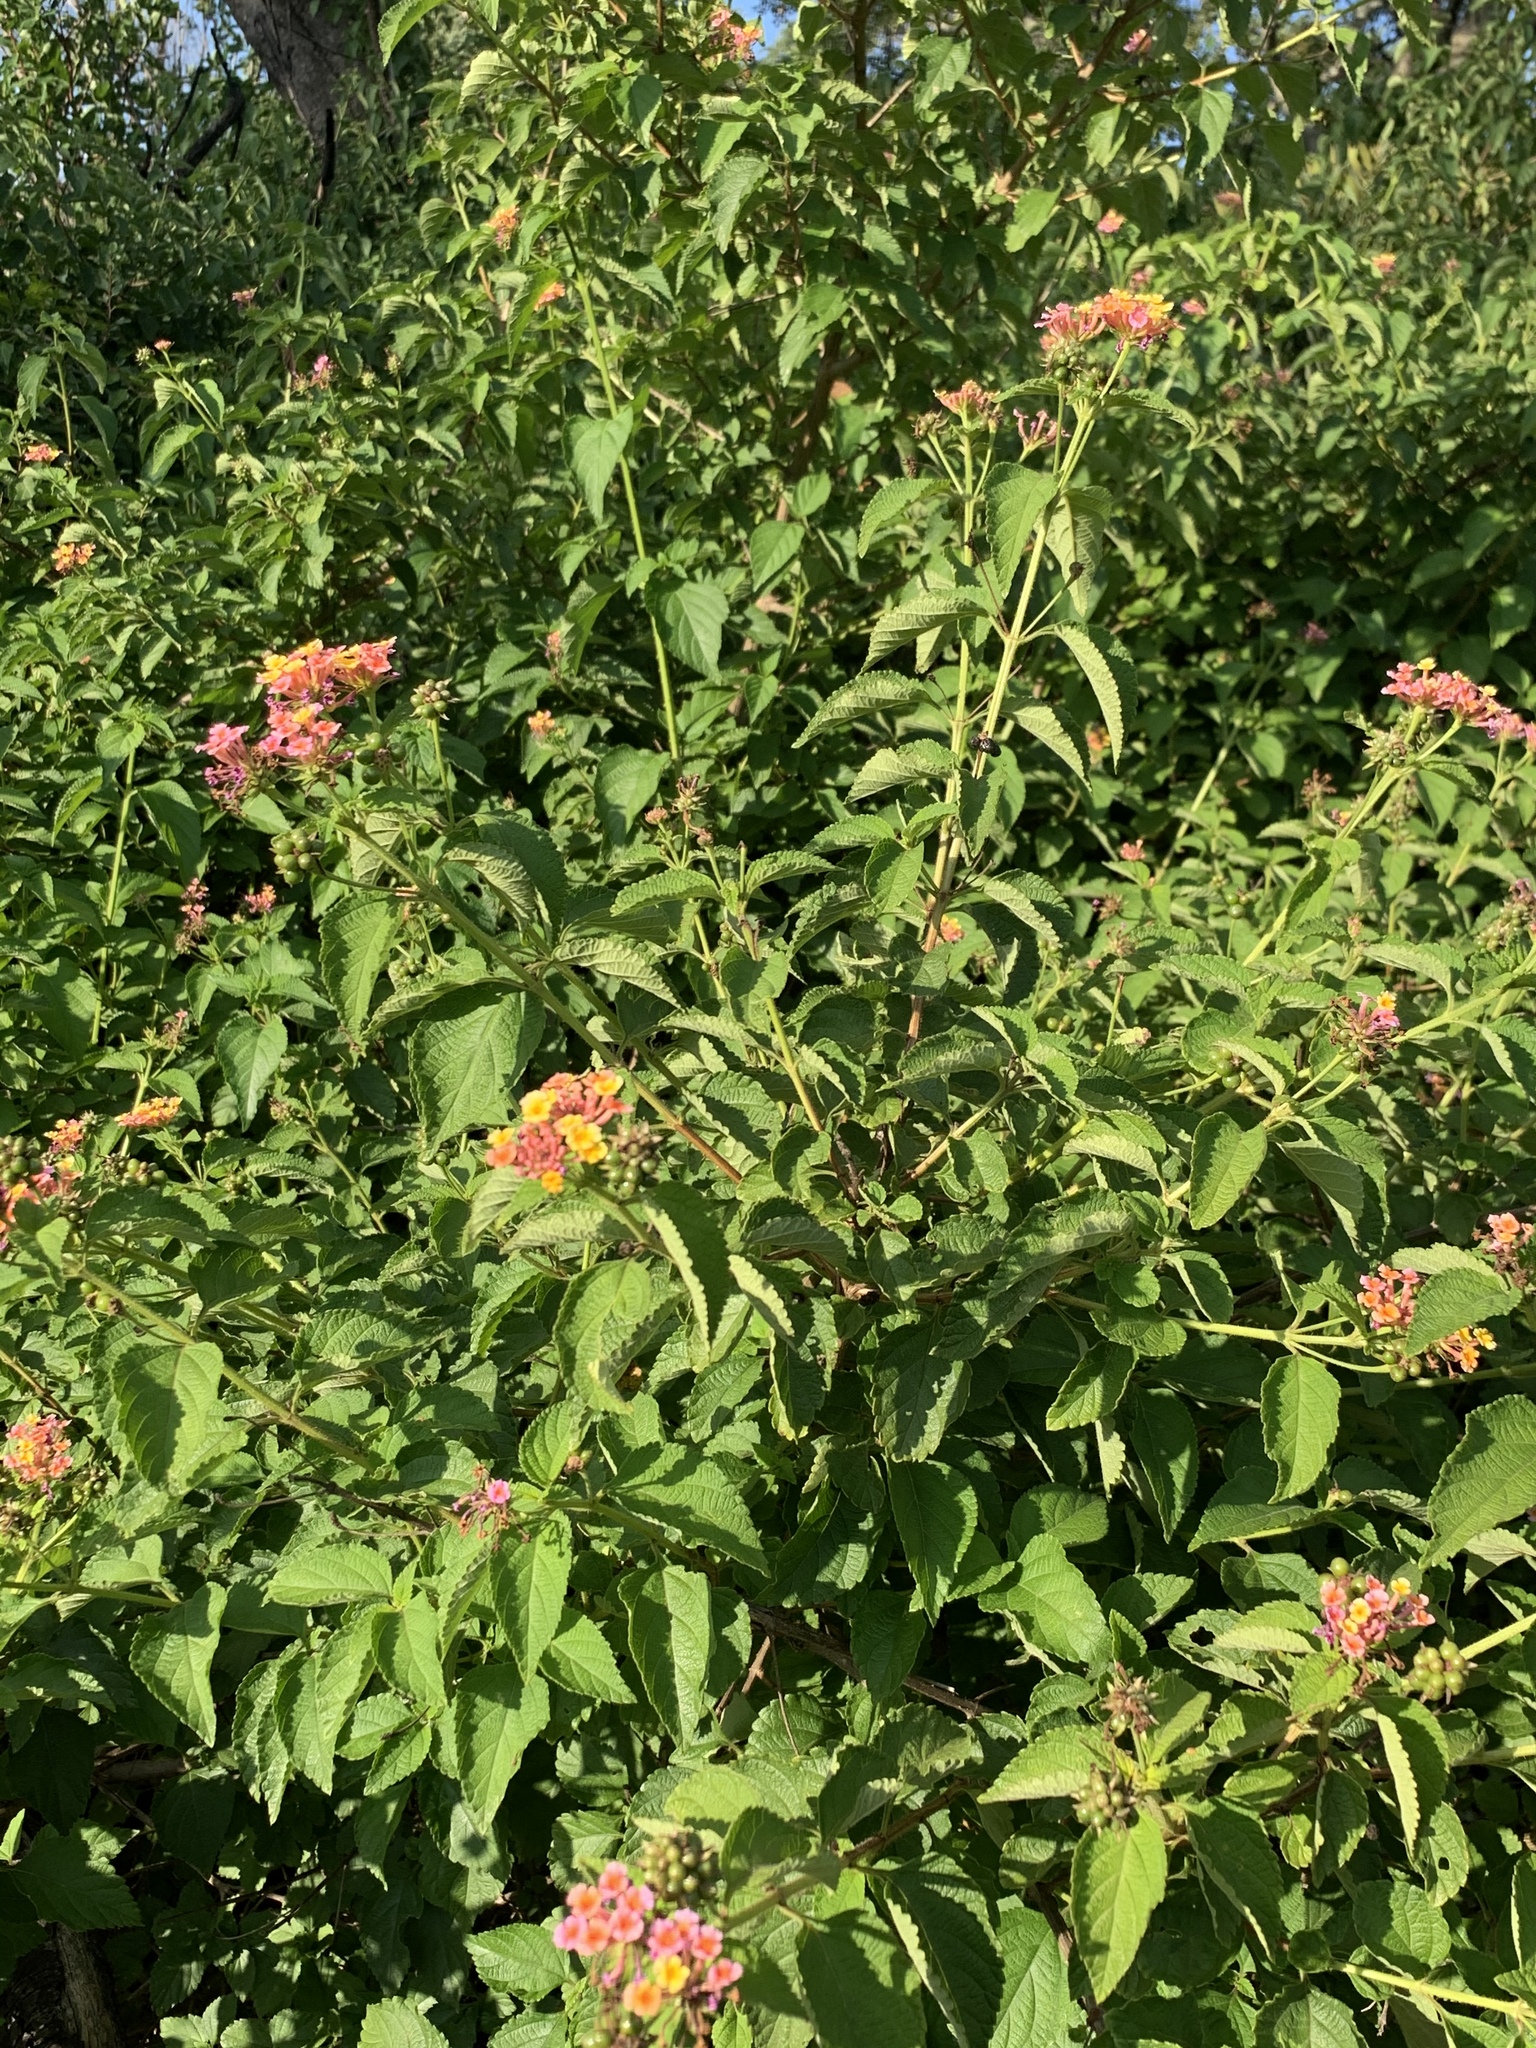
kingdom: Plantae
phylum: Tracheophyta
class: Magnoliopsida
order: Lamiales
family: Verbenaceae
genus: Lantana
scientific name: Lantana camara
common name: Lantana
